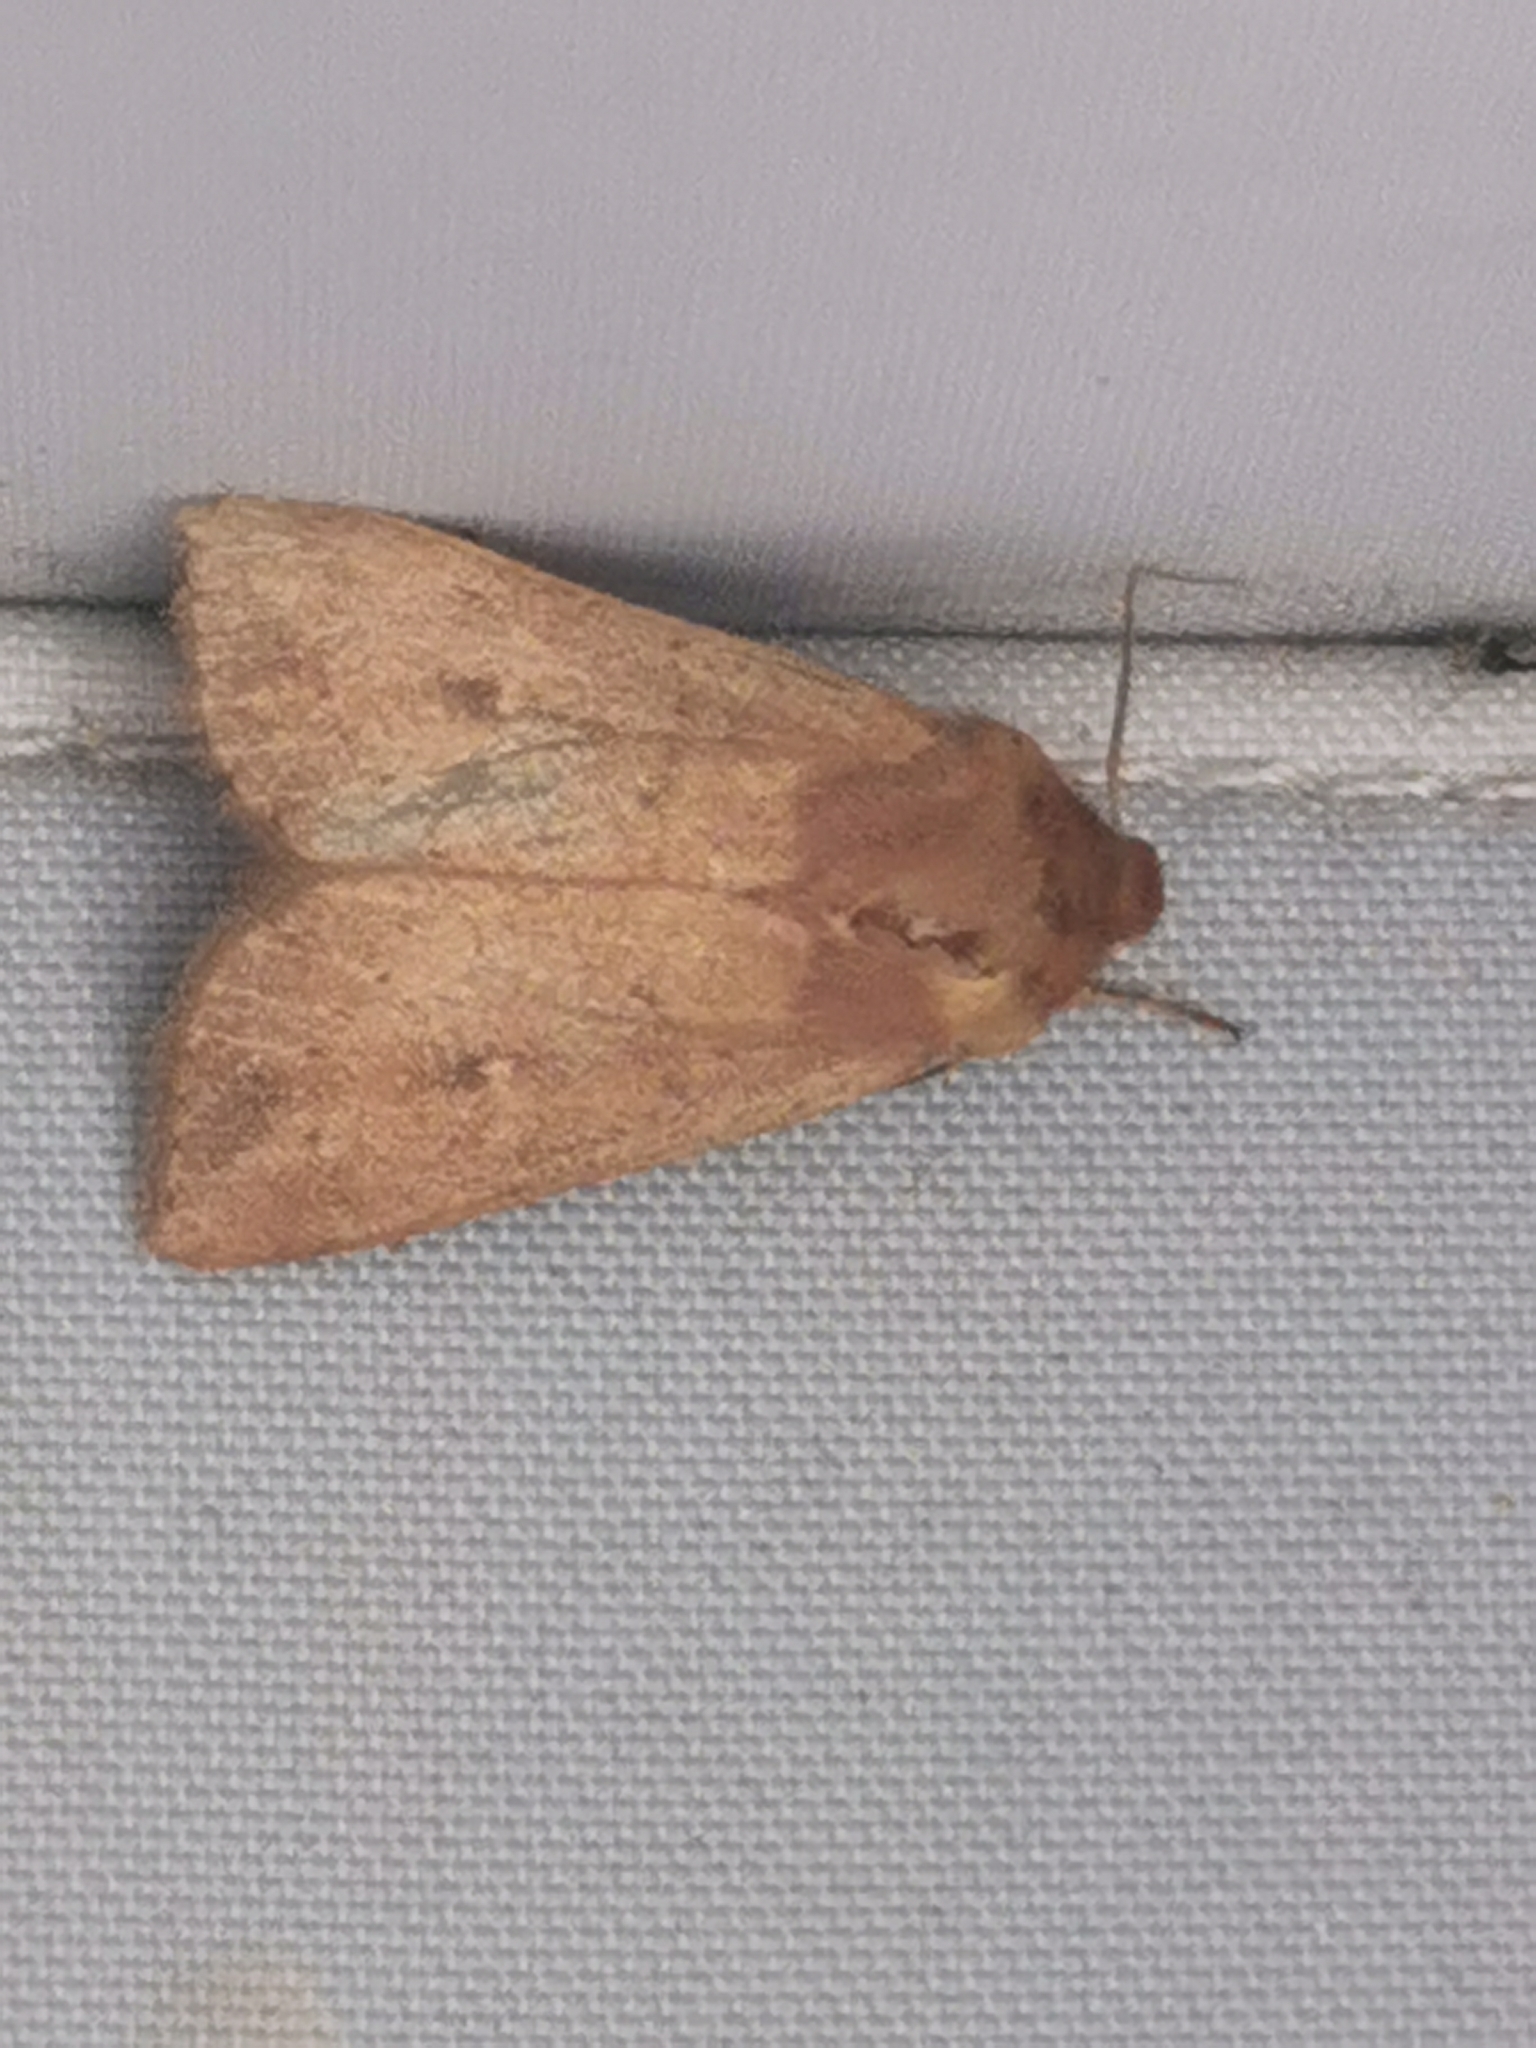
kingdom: Animalia
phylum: Arthropoda
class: Insecta
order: Lepidoptera
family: Noctuidae
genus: Mythimna
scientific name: Mythimna ferrago
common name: Clay
